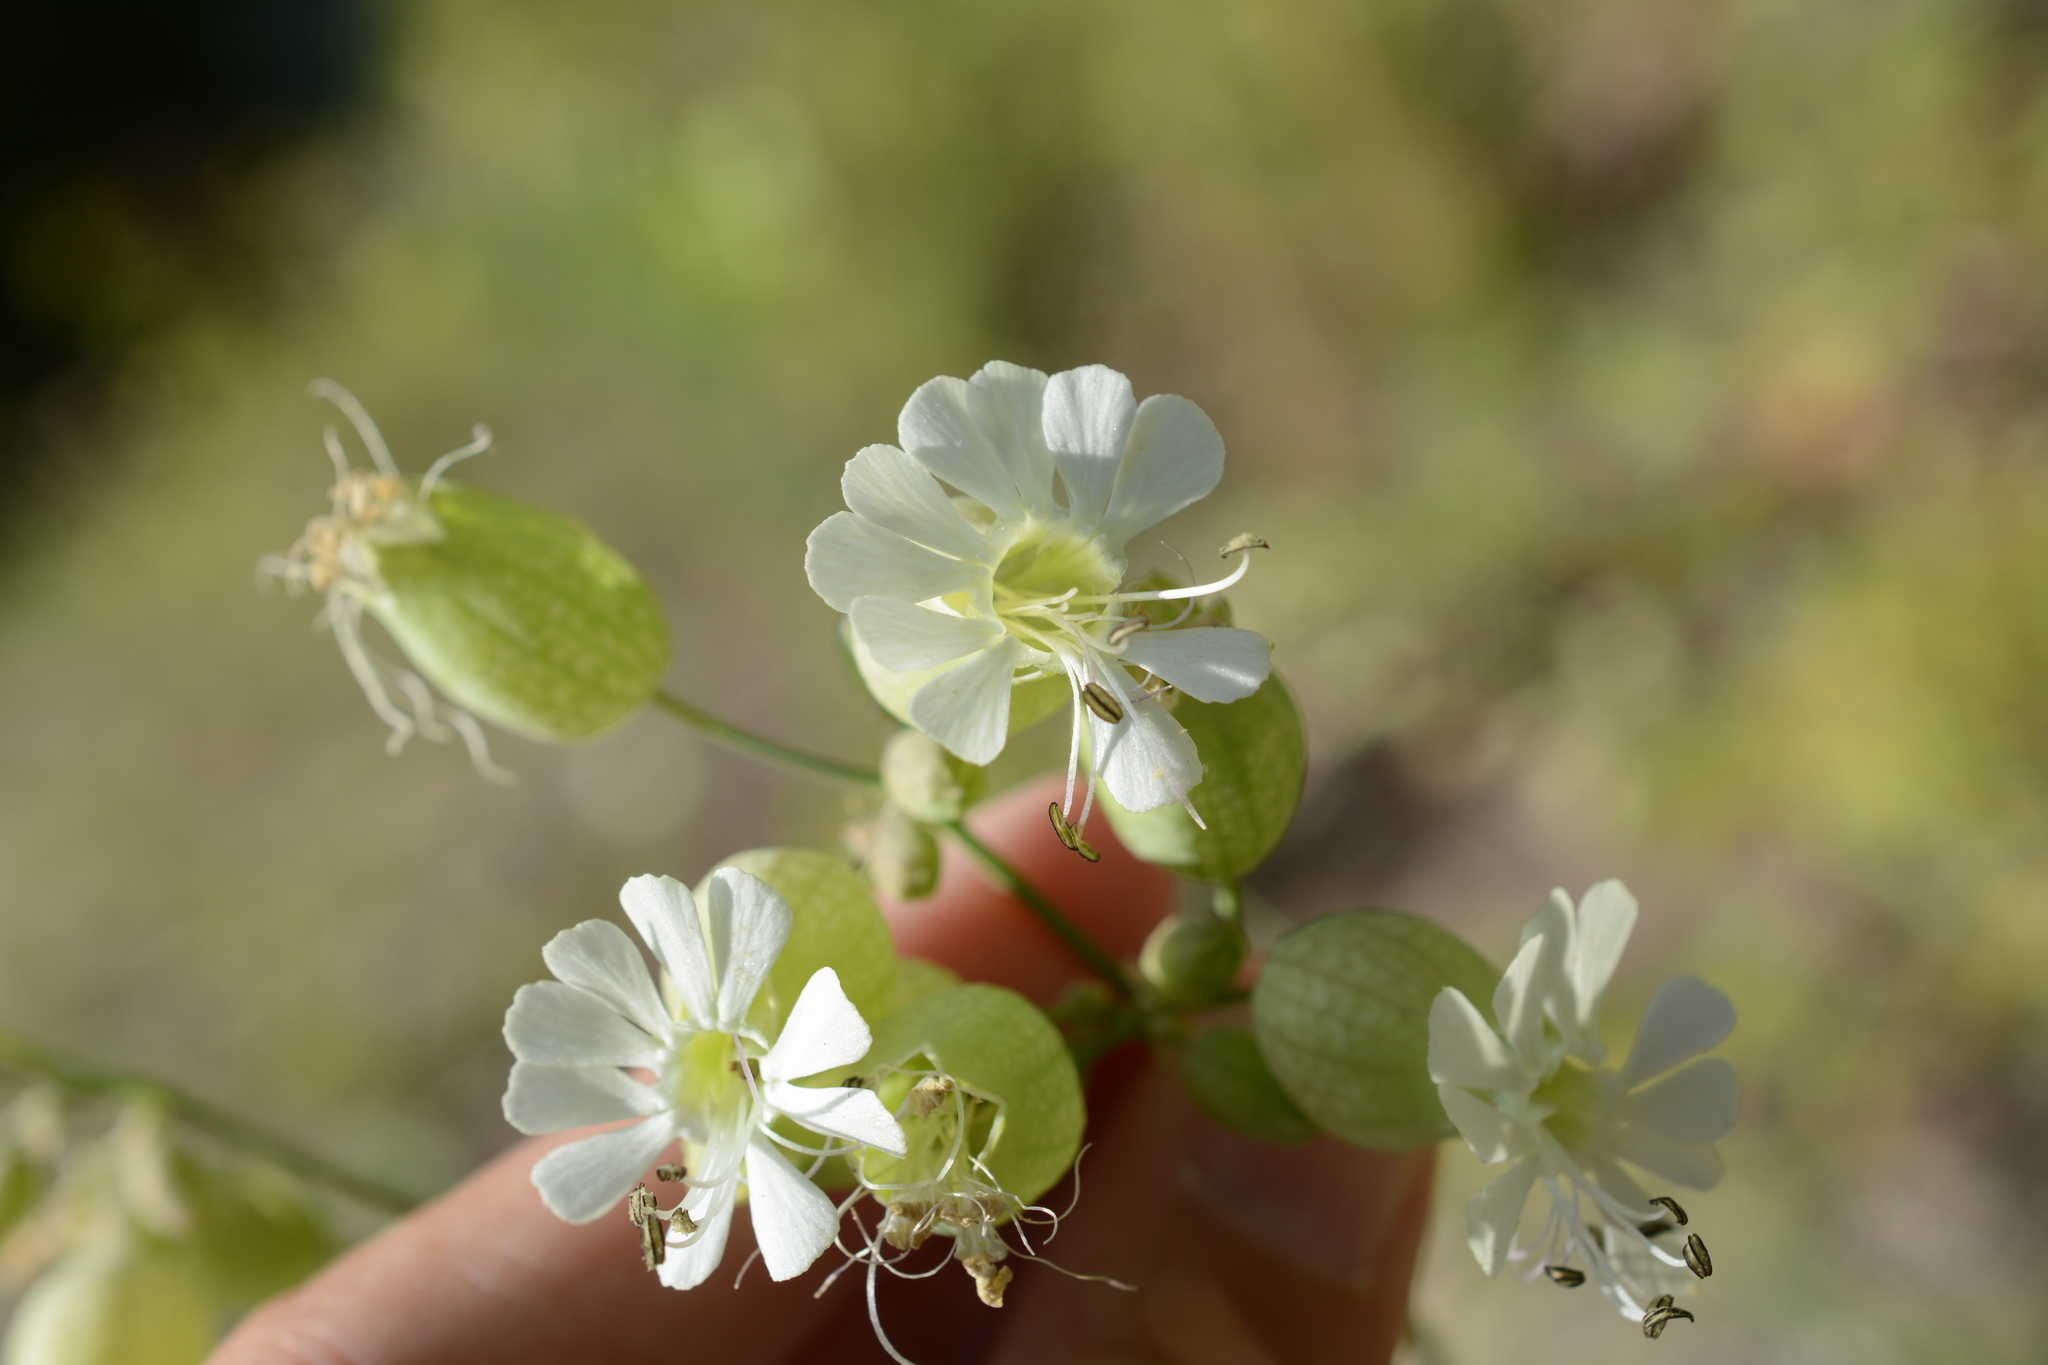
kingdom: Plantae
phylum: Tracheophyta
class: Magnoliopsida
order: Caryophyllales
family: Caryophyllaceae
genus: Silene
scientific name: Silene vulgaris
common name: Bladder campion
